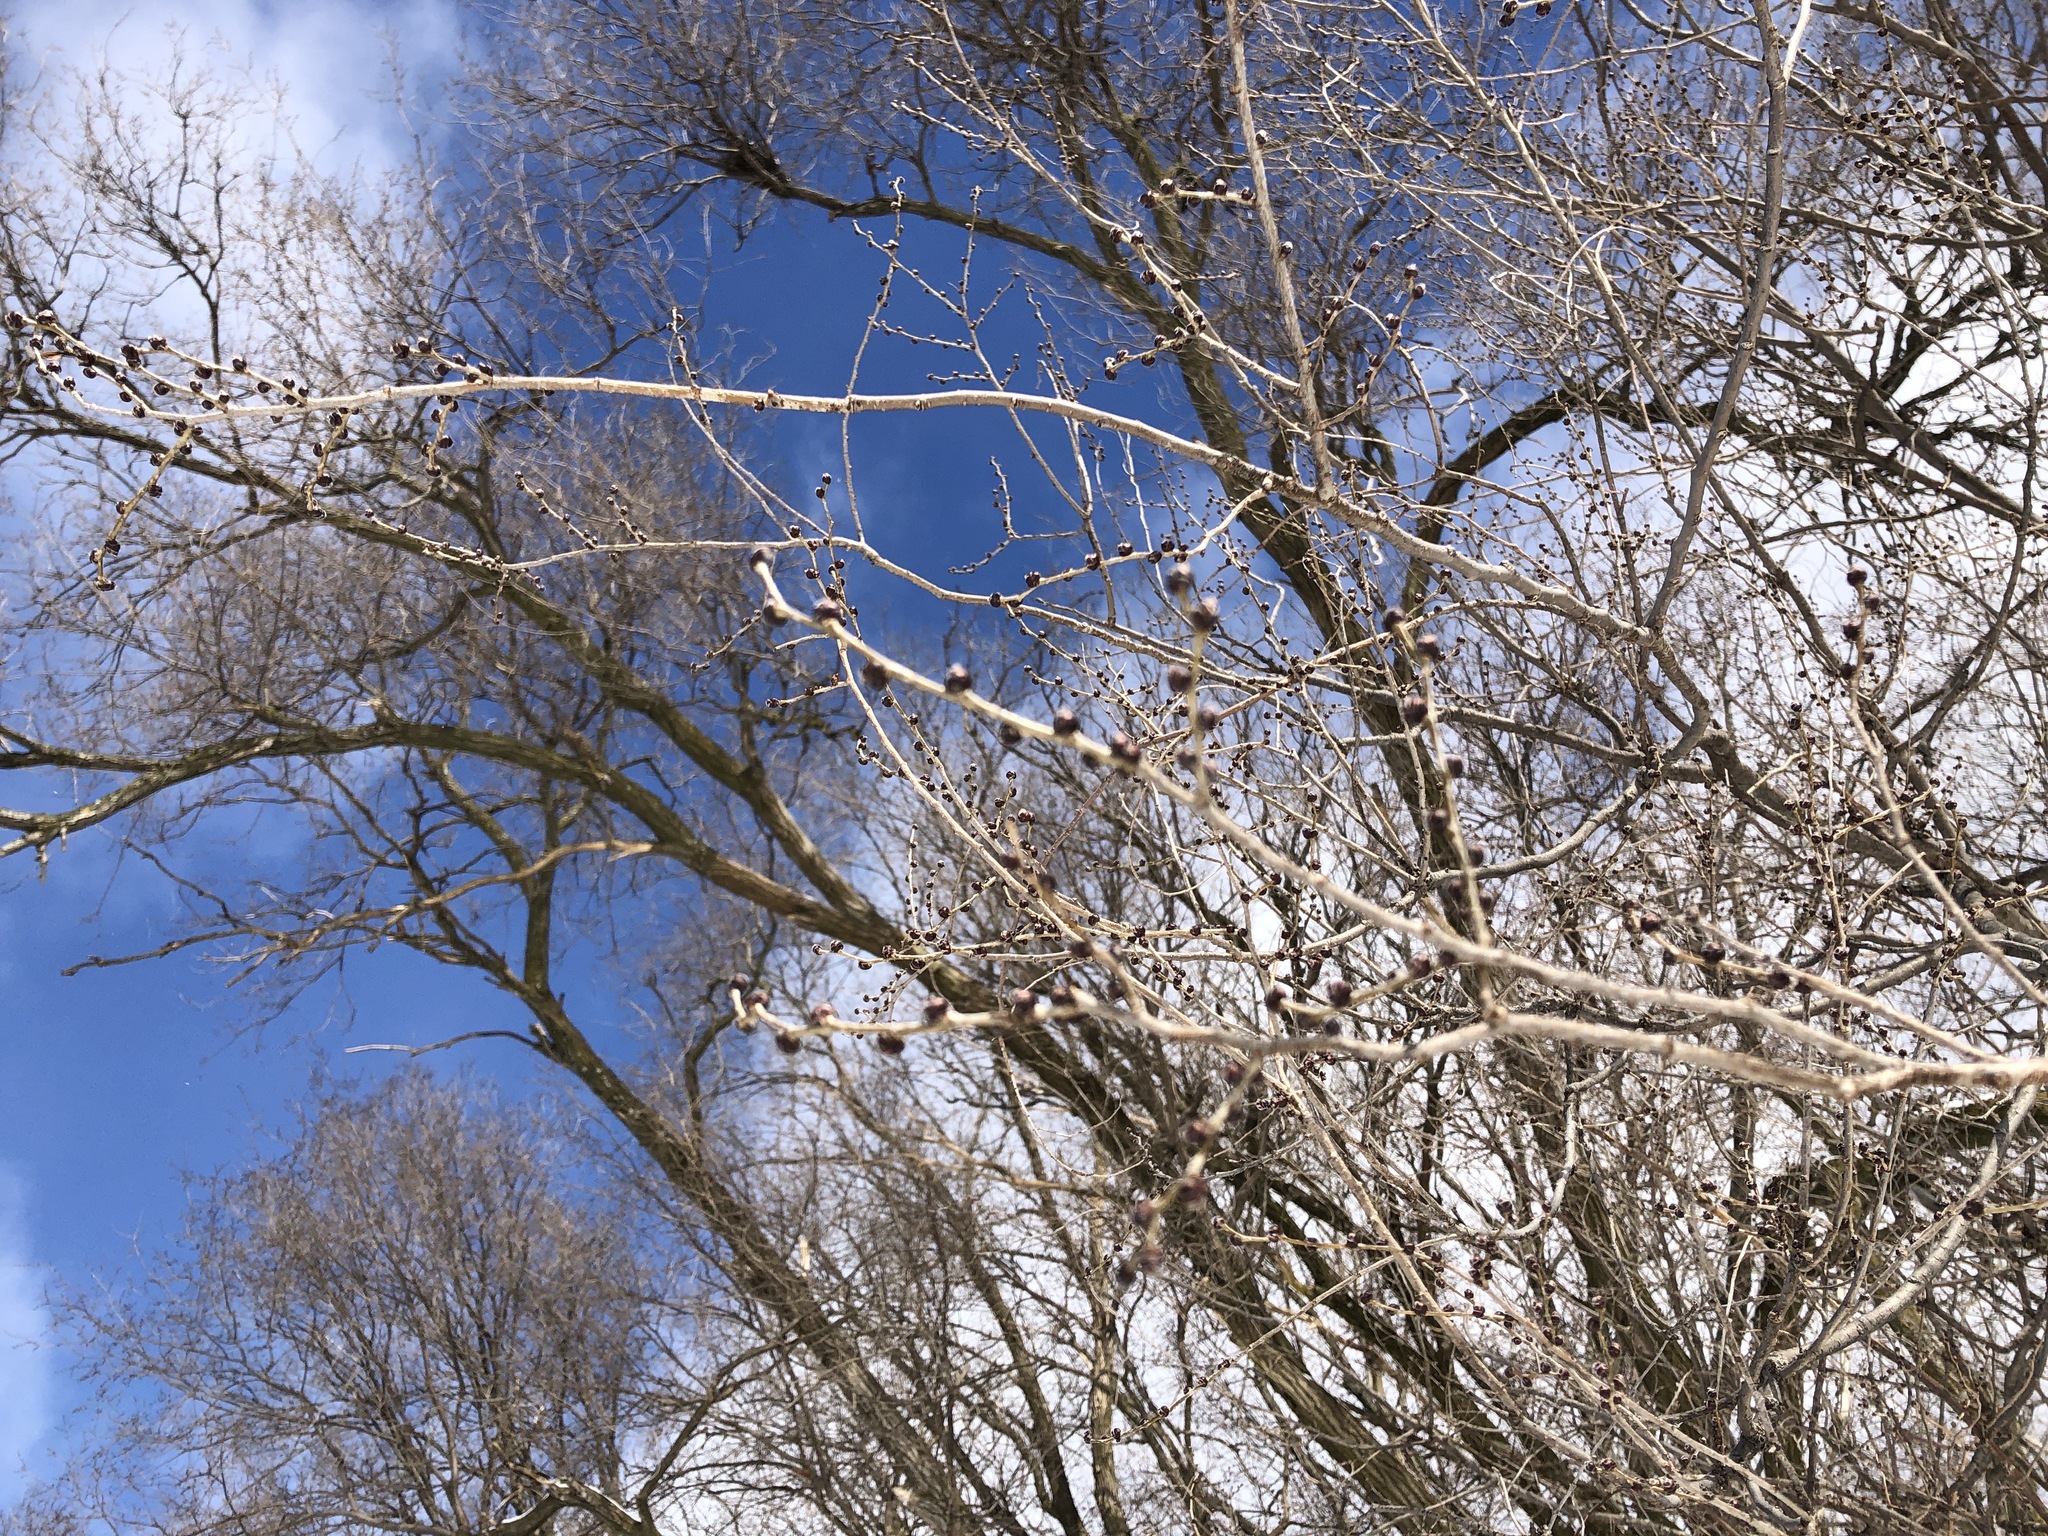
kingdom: Plantae
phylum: Tracheophyta
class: Magnoliopsida
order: Rosales
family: Ulmaceae
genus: Ulmus
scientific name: Ulmus pumila
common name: Siberian elm
